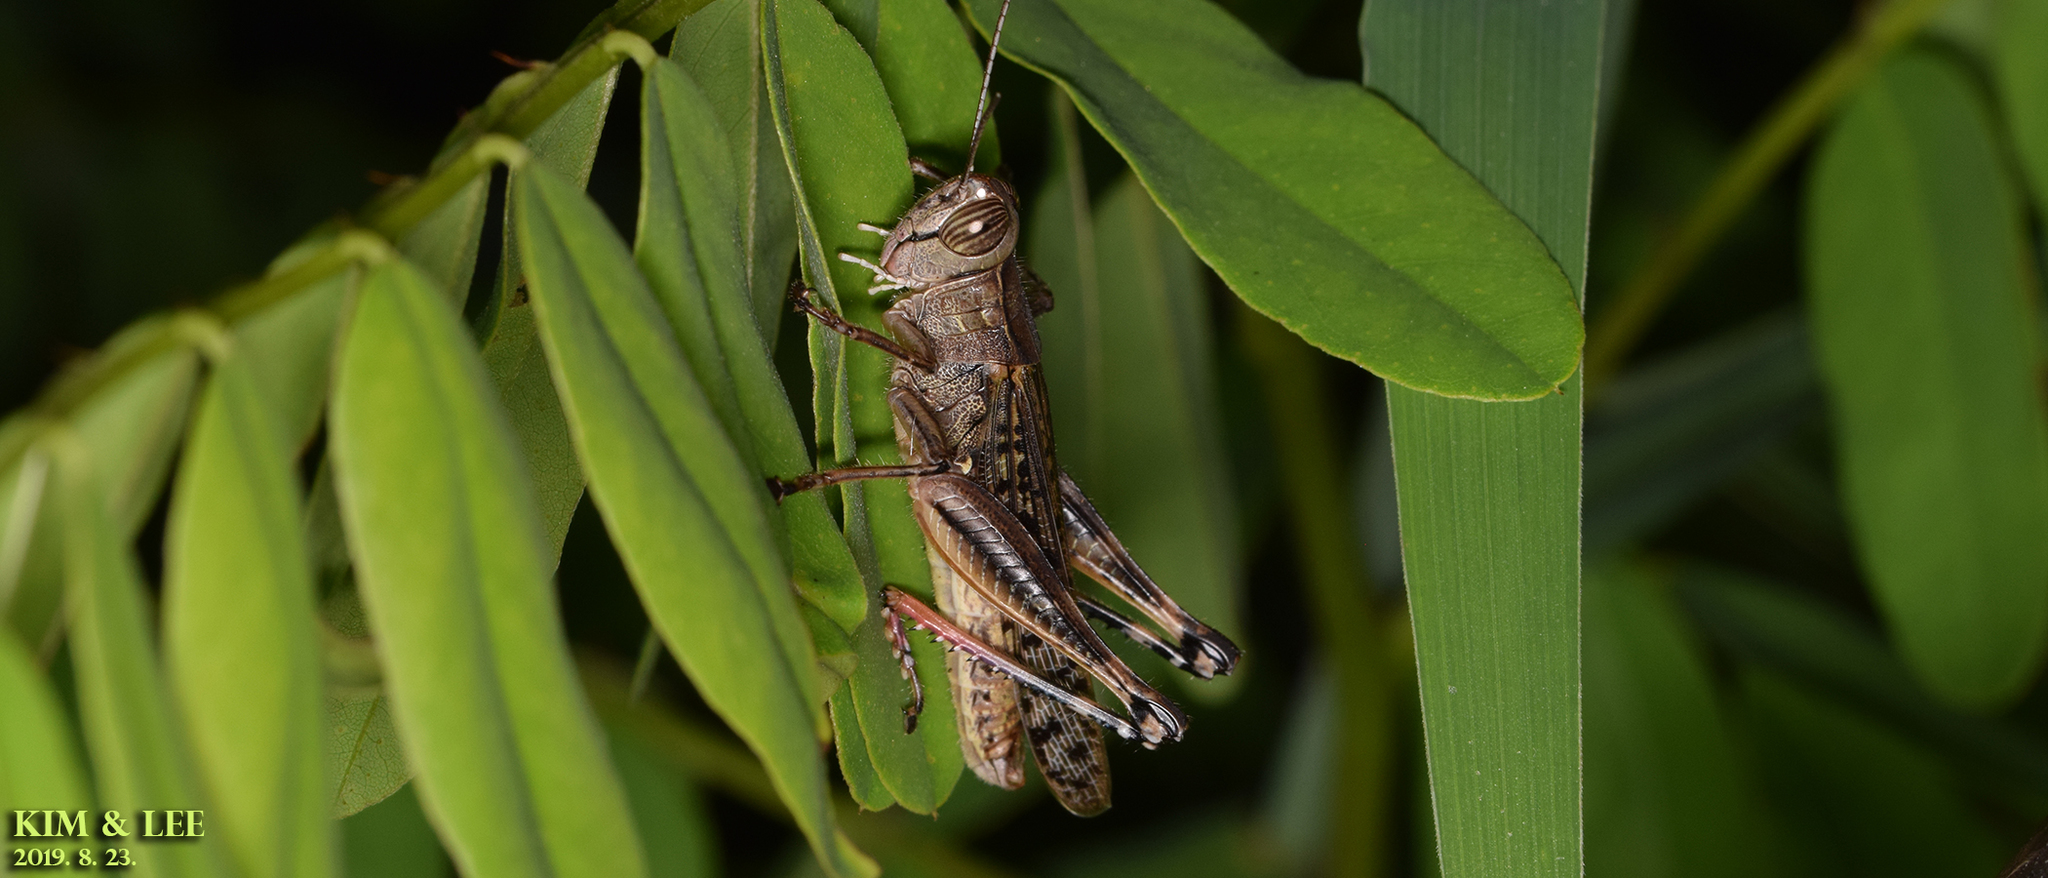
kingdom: Animalia
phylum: Arthropoda
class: Insecta
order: Orthoptera
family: Acrididae
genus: Shirakiacris
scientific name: Shirakiacris shirakii
